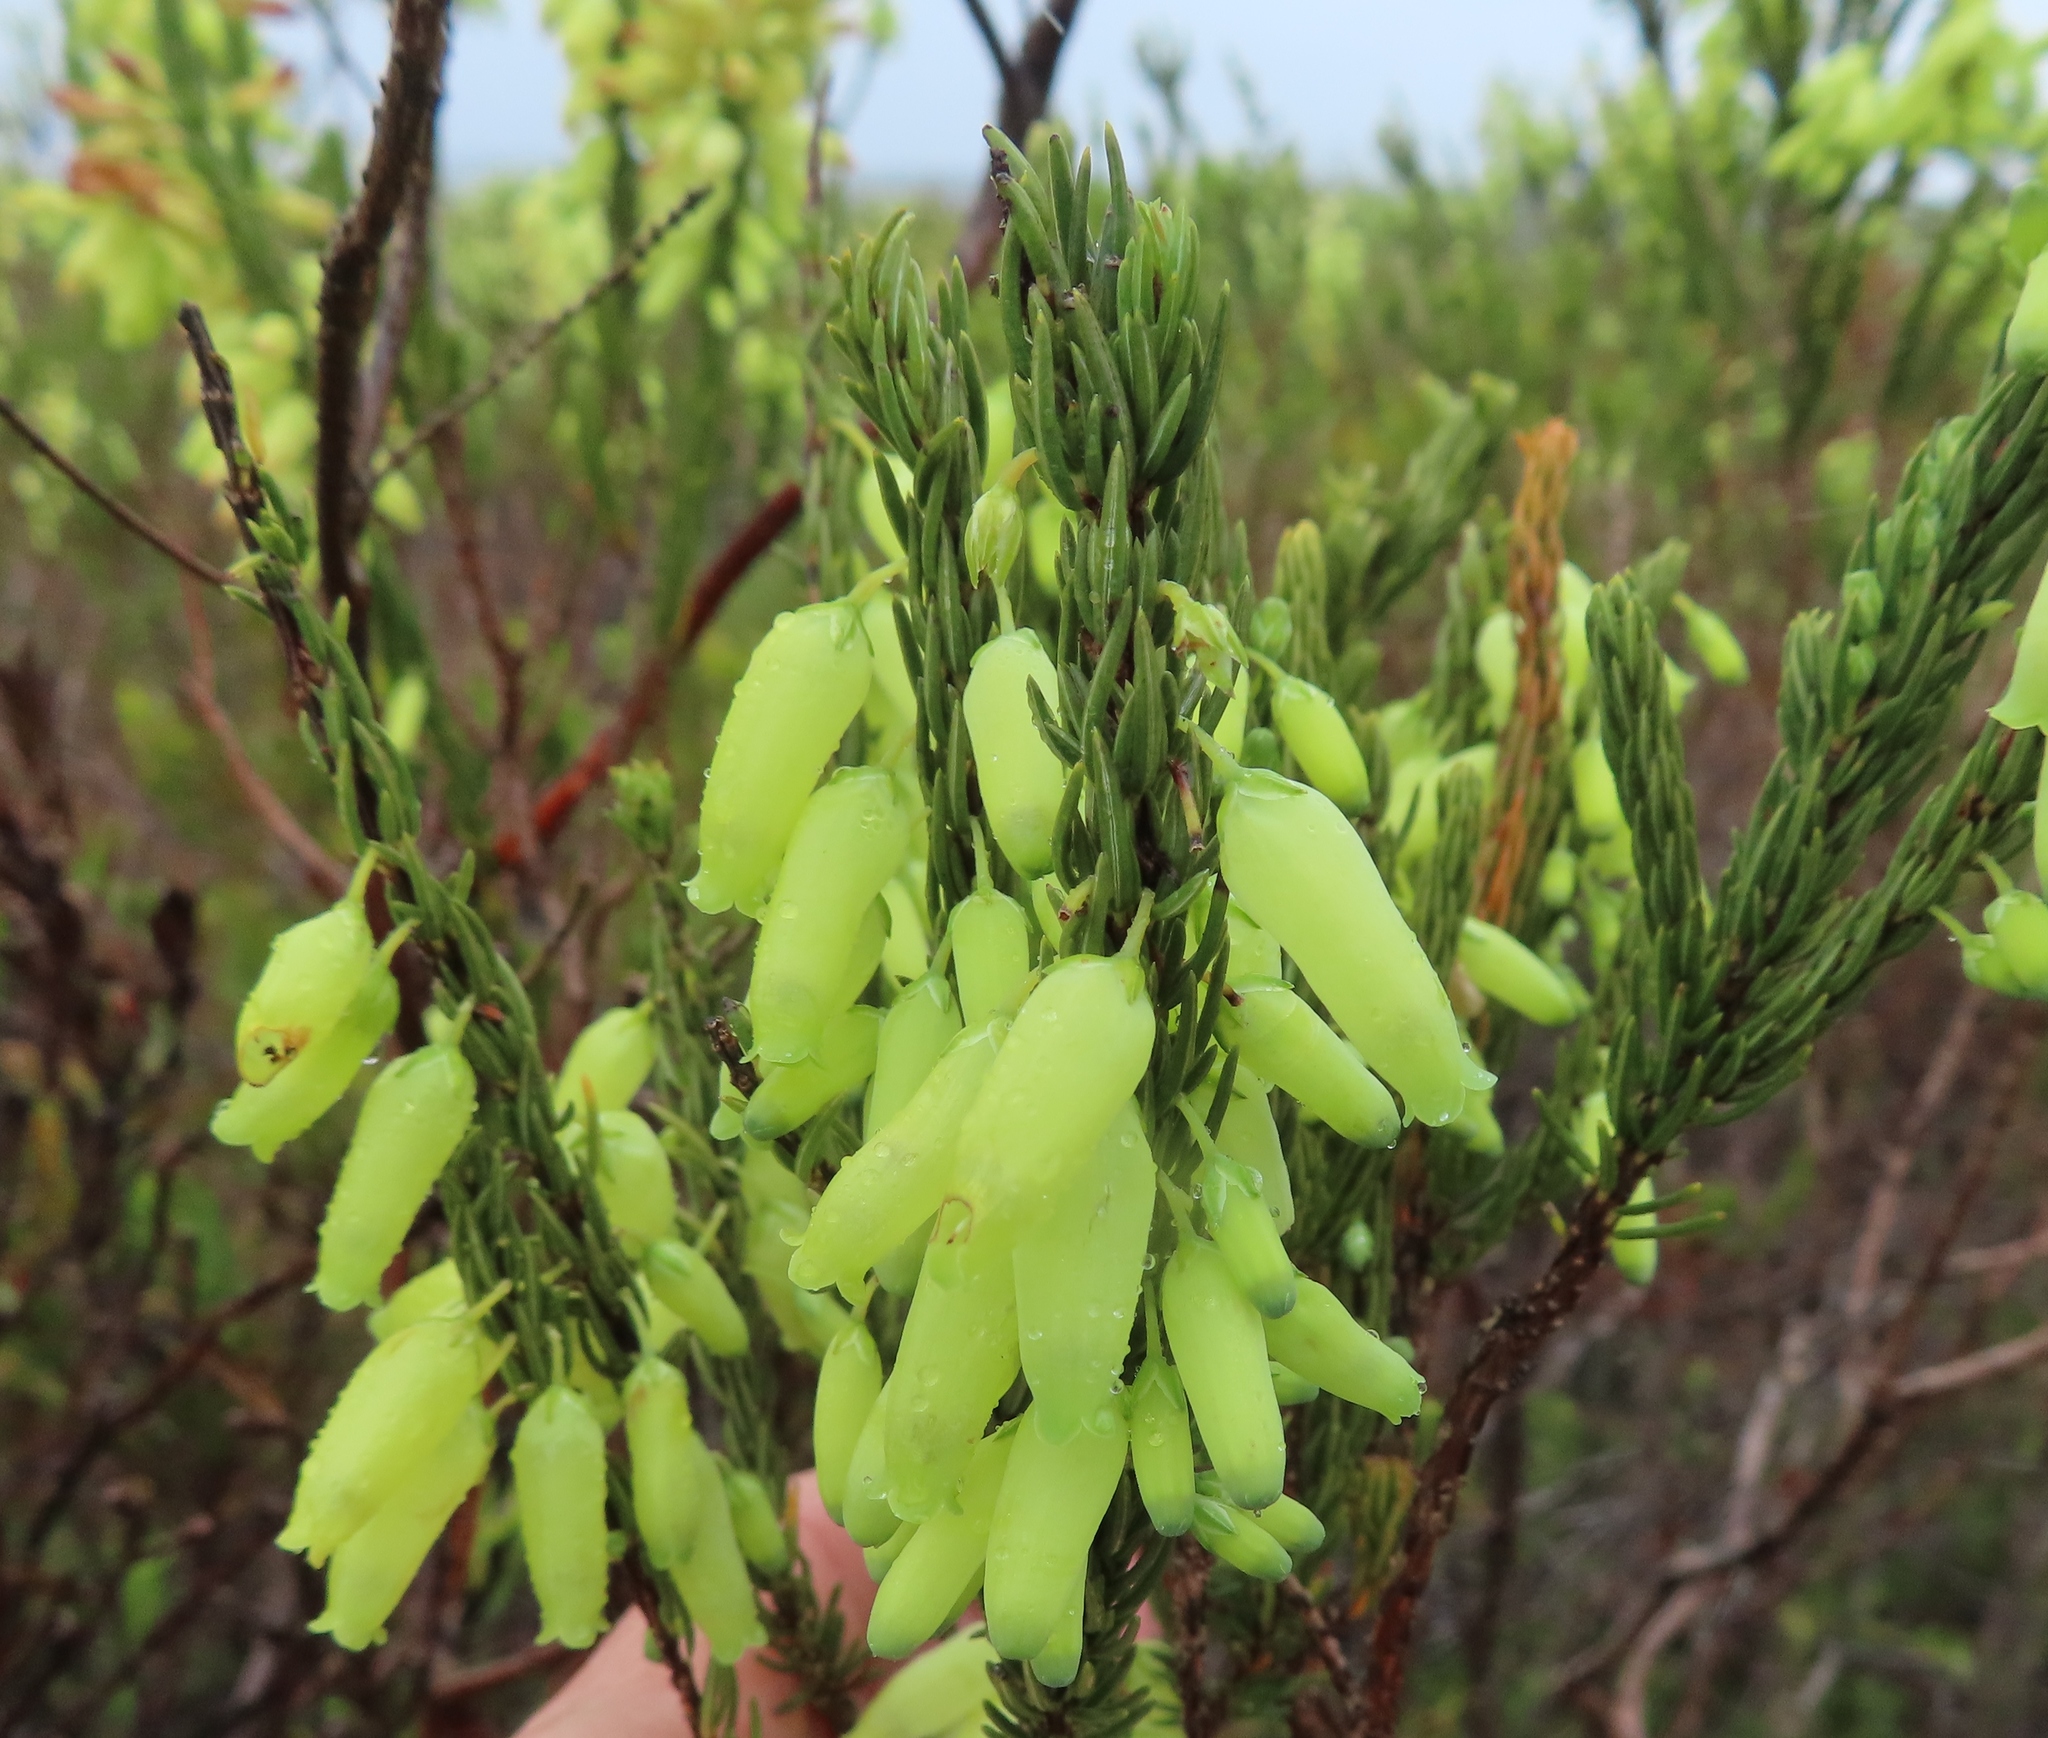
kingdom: Plantae
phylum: Tracheophyta
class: Magnoliopsida
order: Ericales
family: Ericaceae
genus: Erica
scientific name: Erica penduliflora
